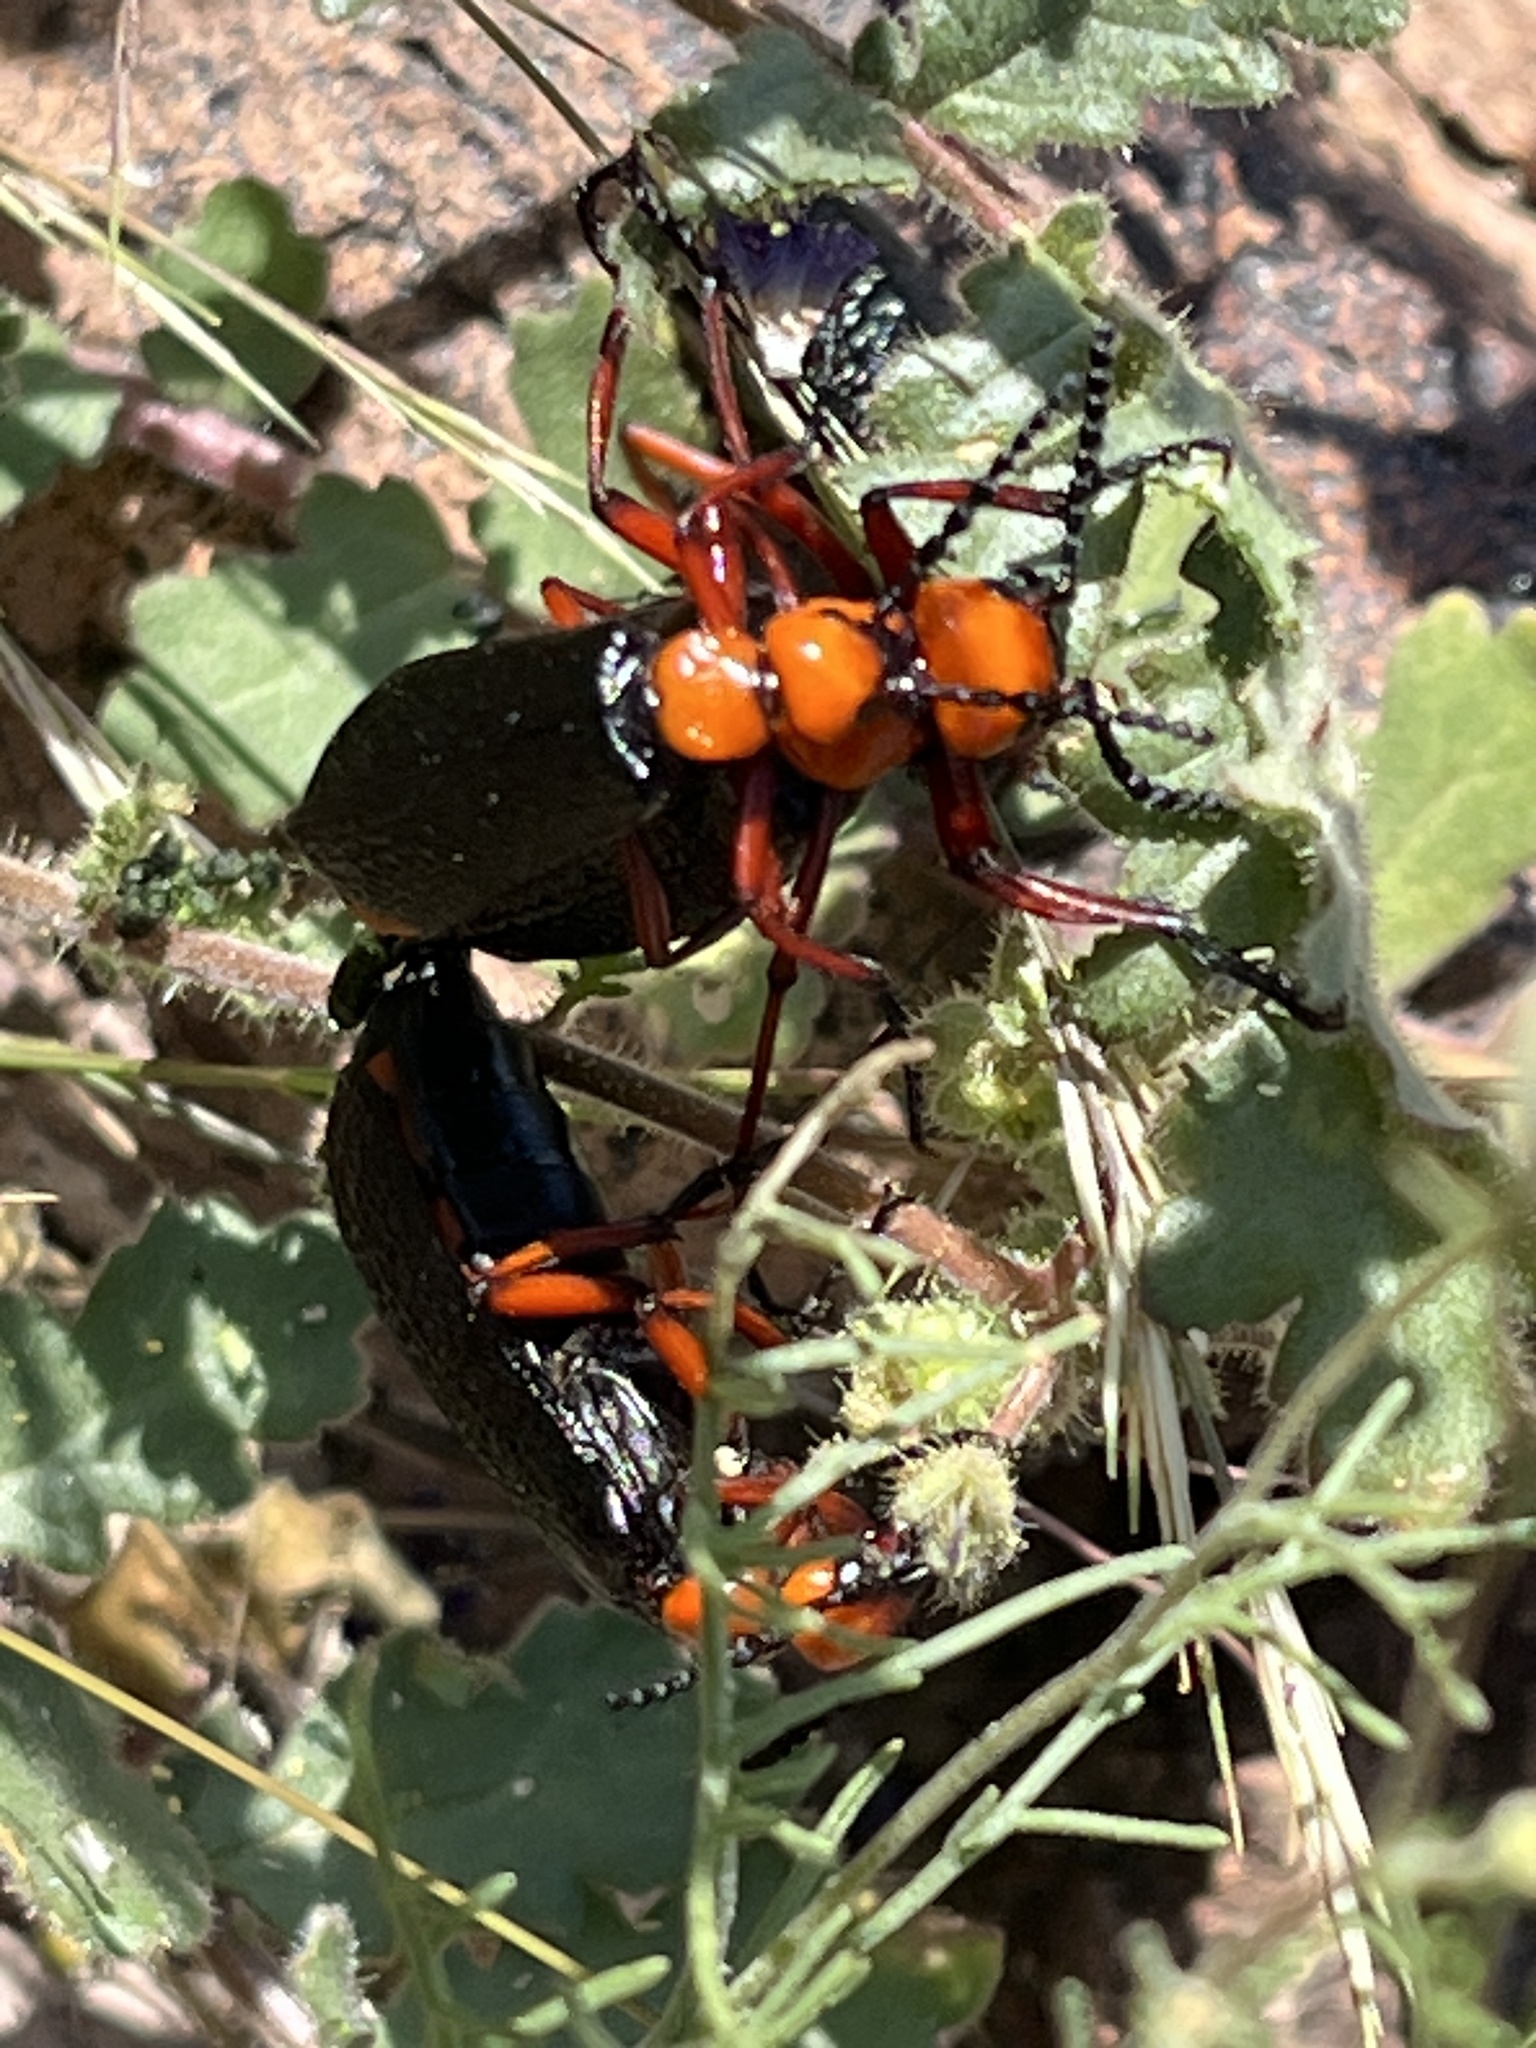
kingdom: Animalia
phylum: Arthropoda
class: Insecta
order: Coleoptera
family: Meloidae
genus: Lytta
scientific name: Lytta magister
